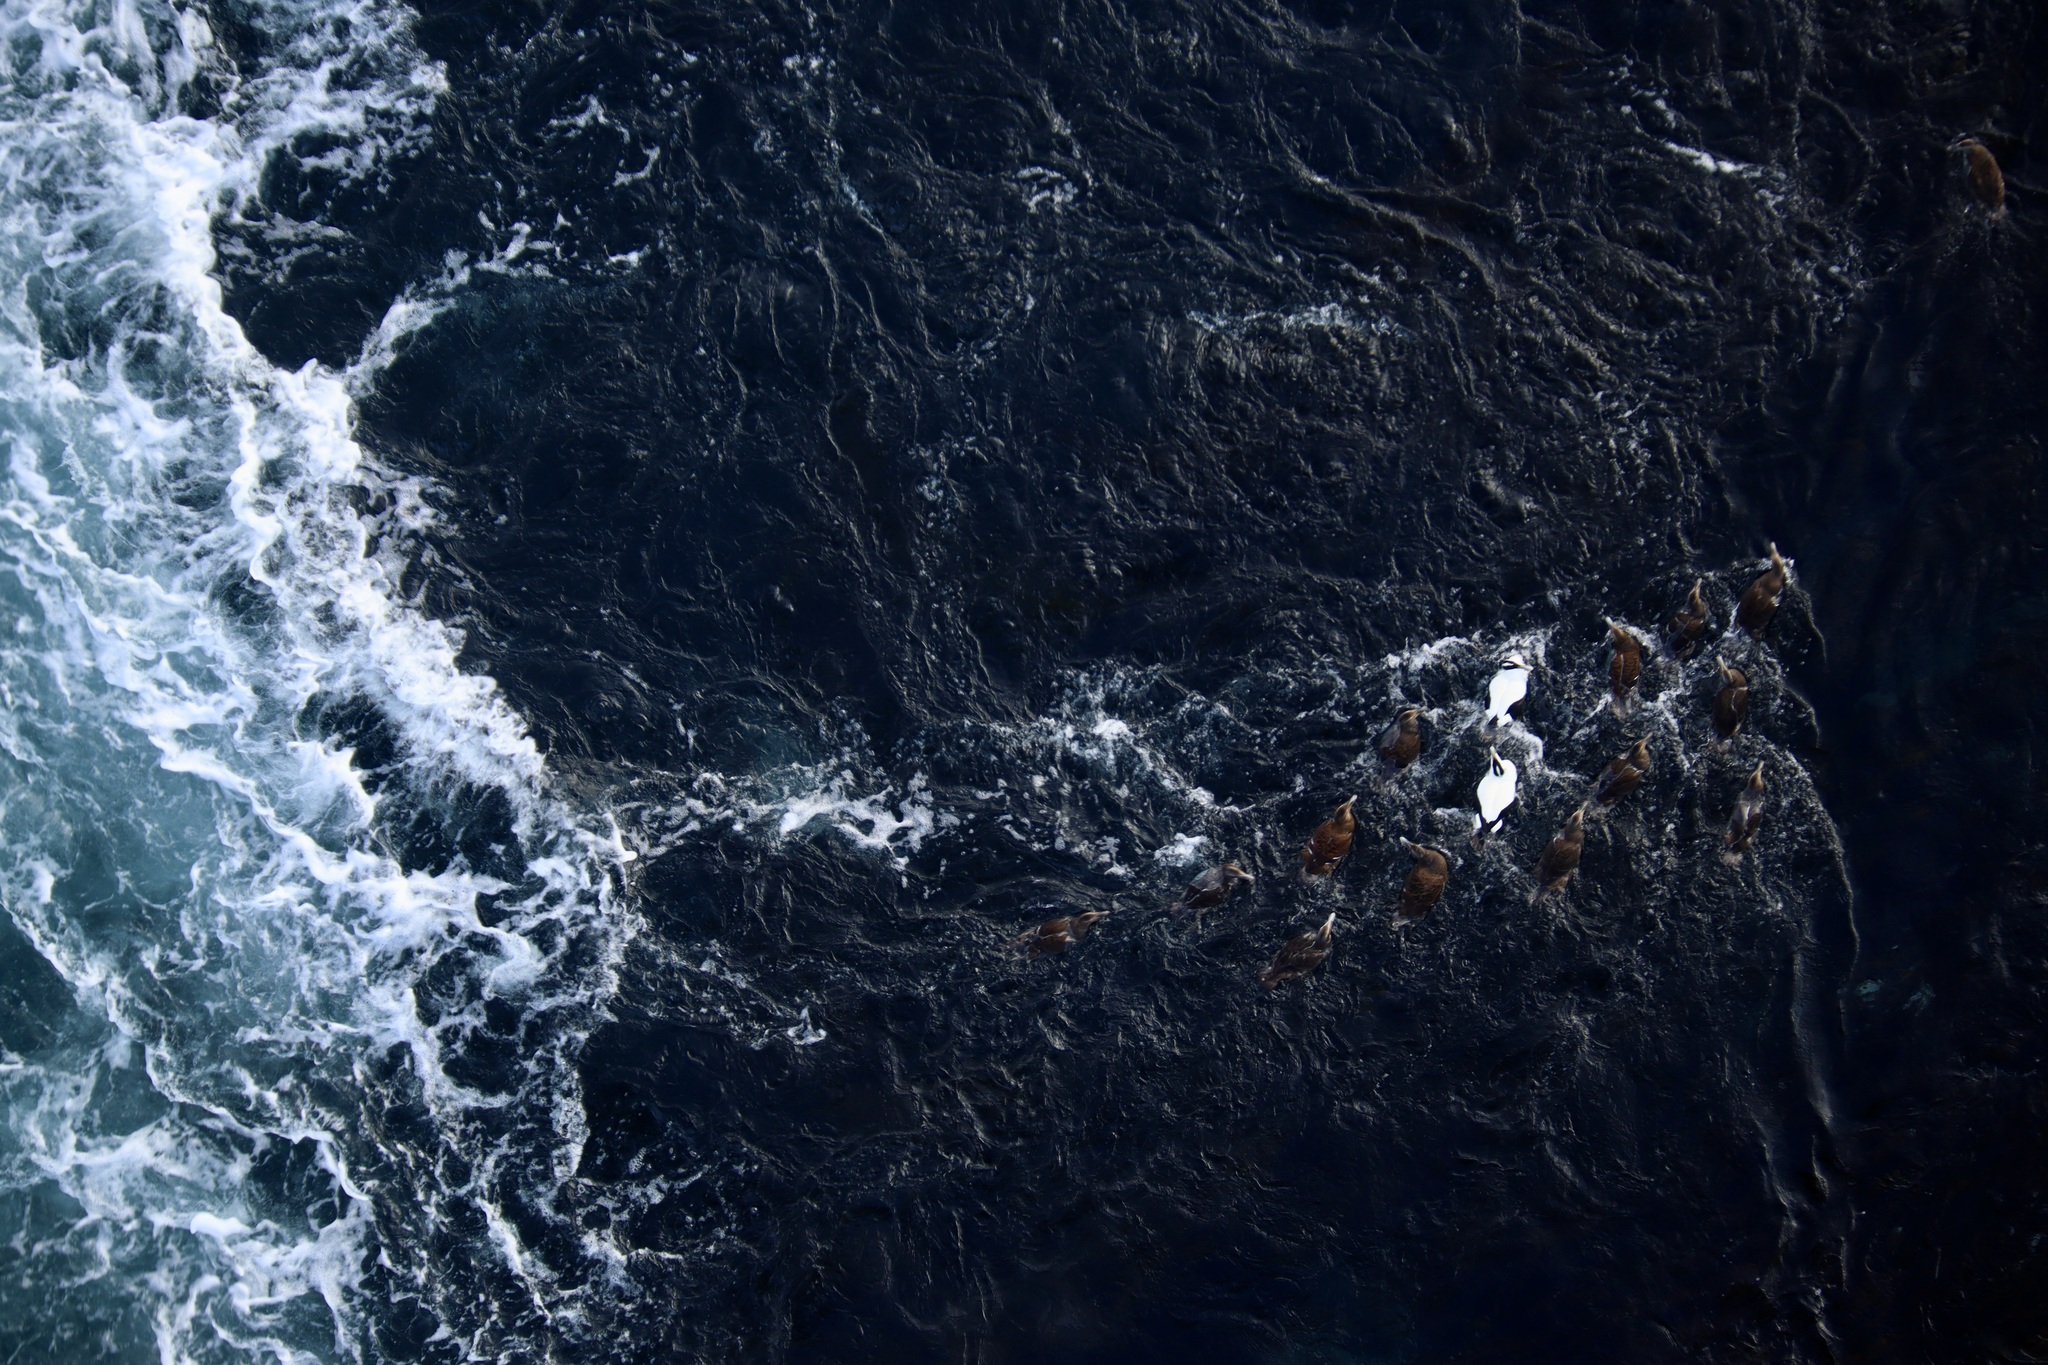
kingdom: Animalia
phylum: Chordata
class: Aves
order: Anseriformes
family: Anatidae
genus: Somateria
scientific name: Somateria mollissima
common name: Common eider
